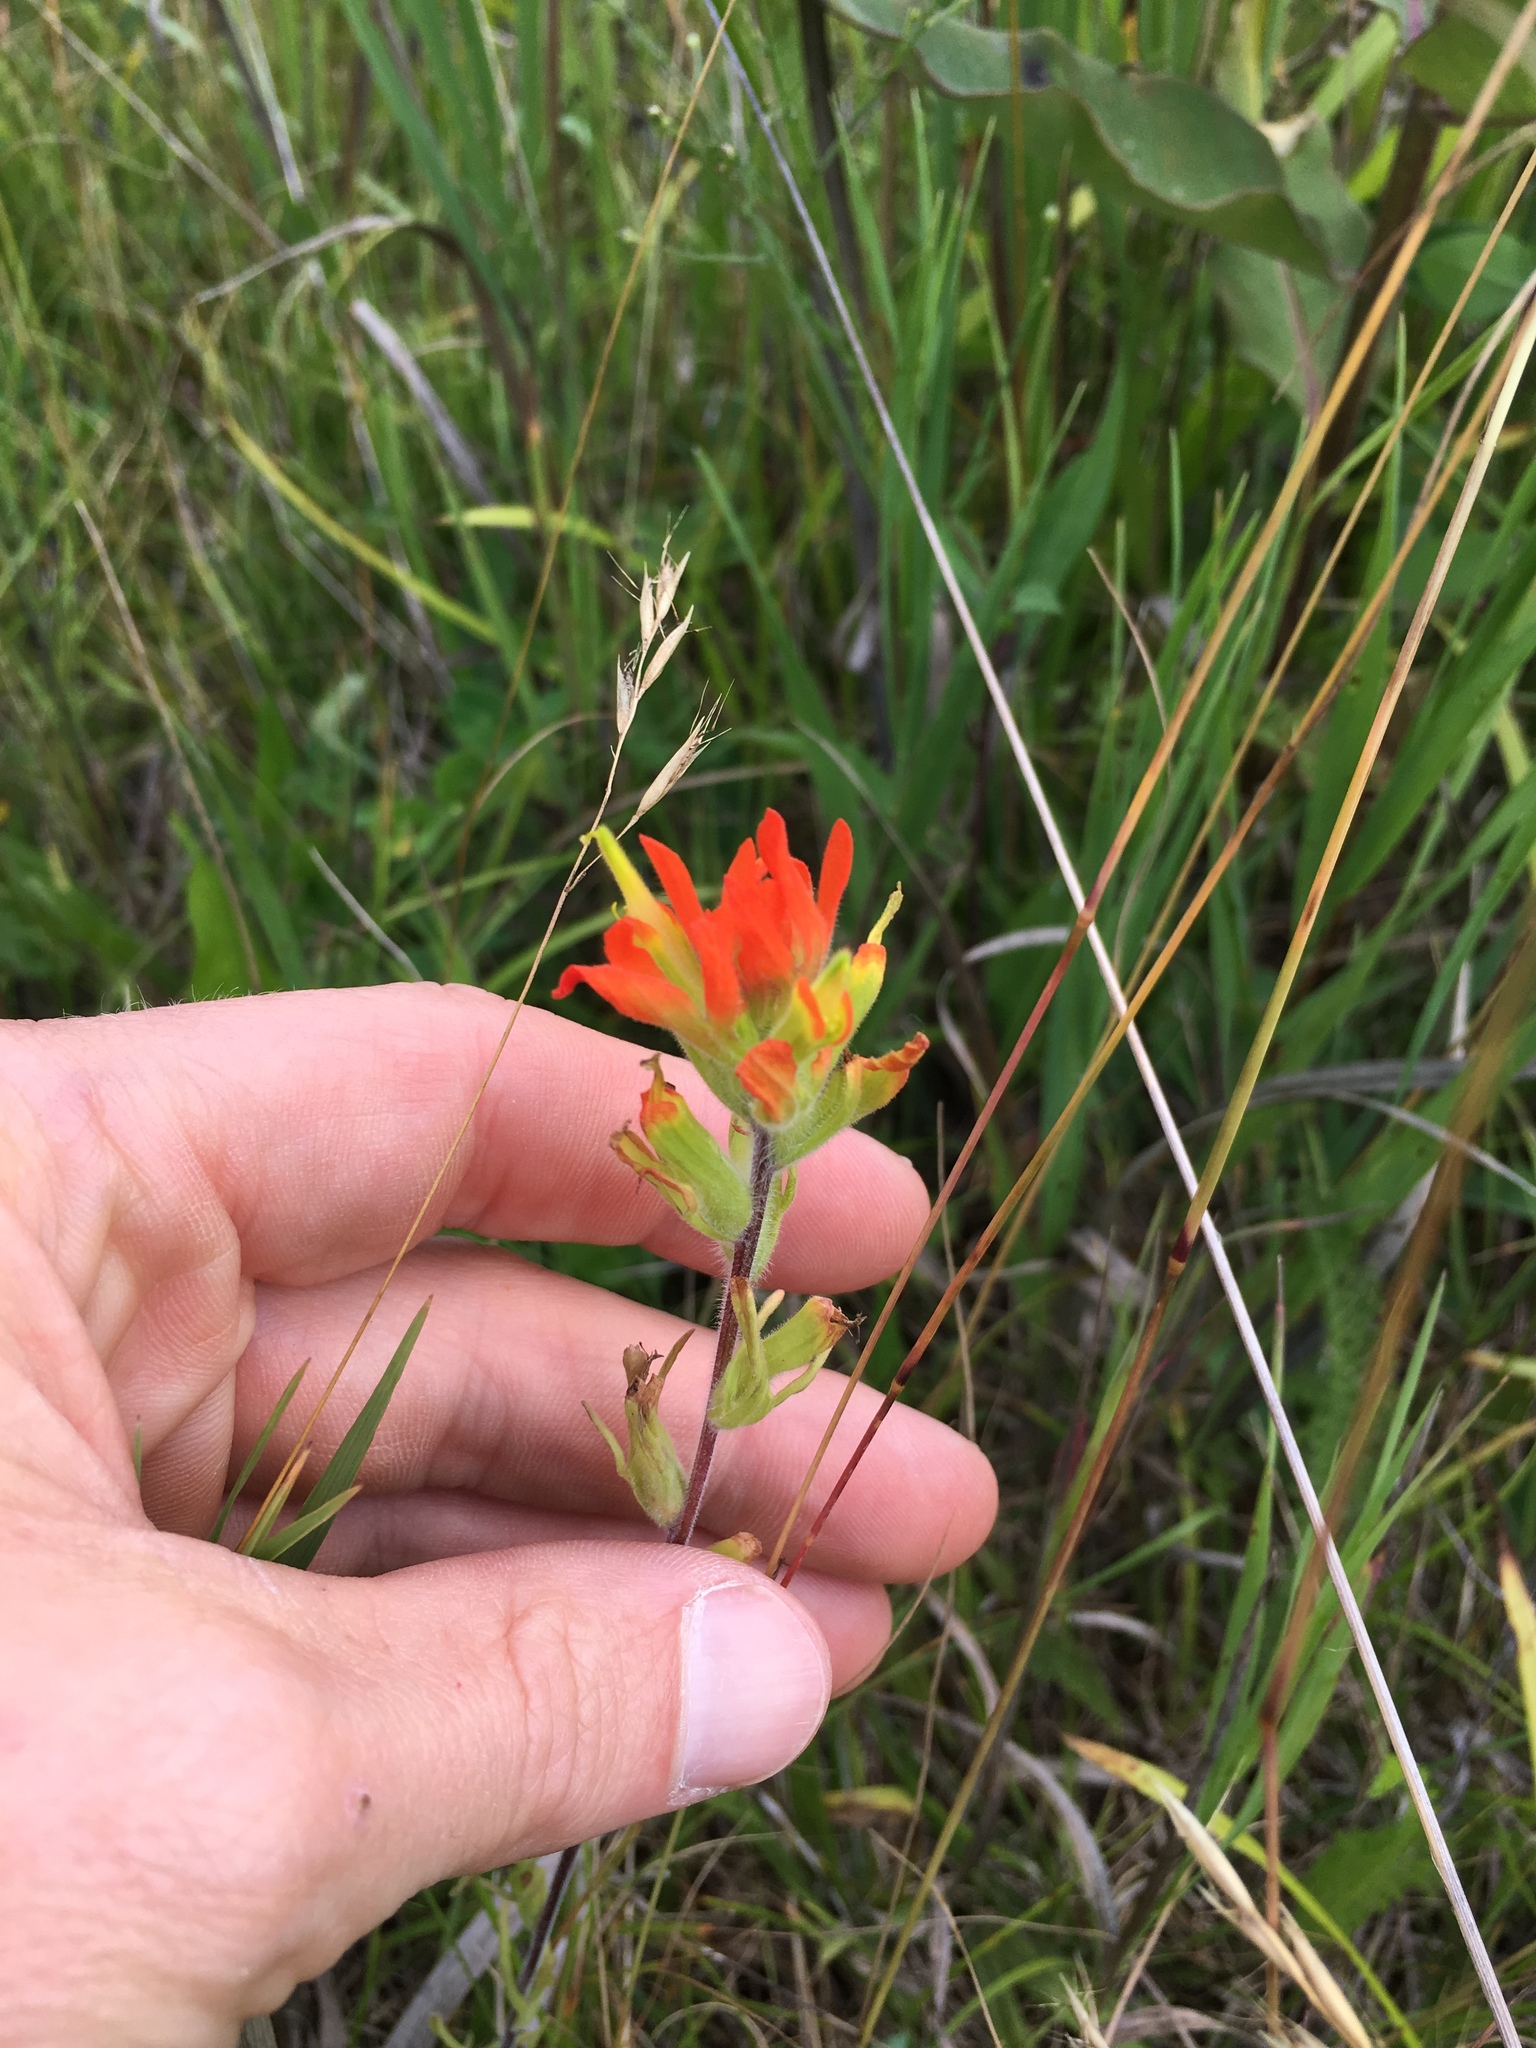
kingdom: Plantae
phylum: Tracheophyta
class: Magnoliopsida
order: Lamiales
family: Orobanchaceae
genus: Castilleja
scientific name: Castilleja coccinea
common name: Scarlet paintbrush
